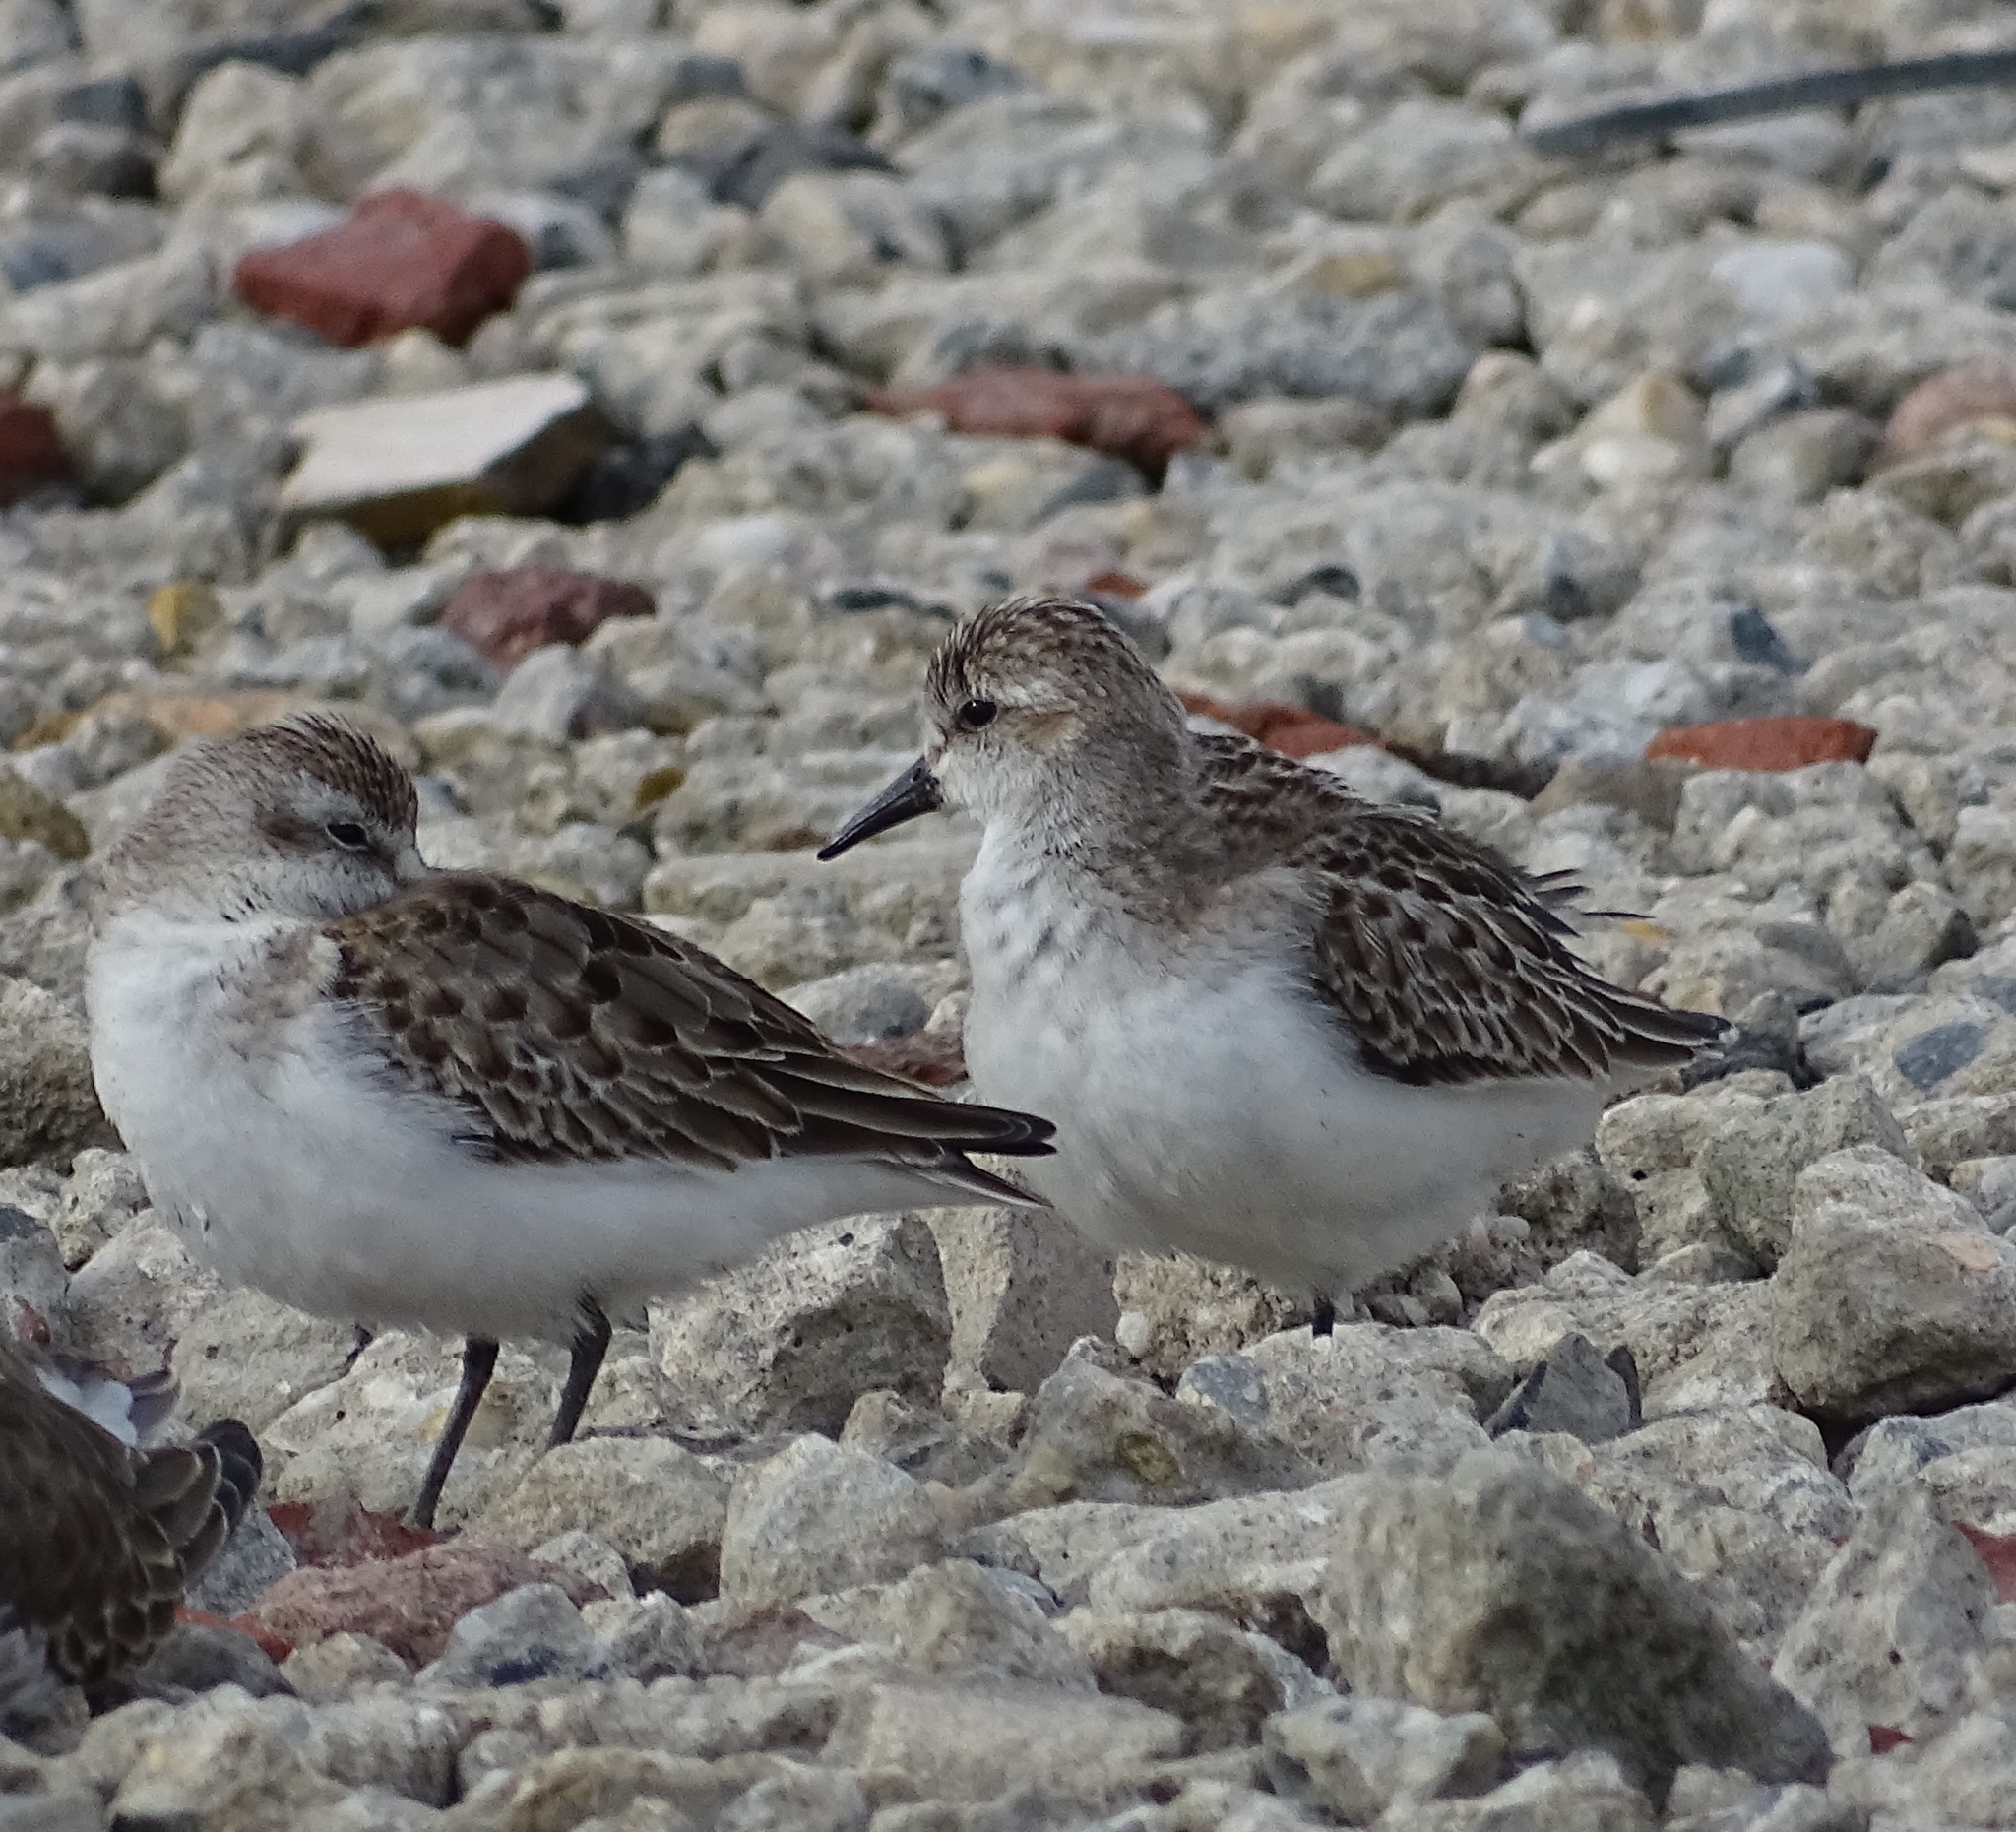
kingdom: Animalia
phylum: Chordata
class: Aves
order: Charadriiformes
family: Scolopacidae
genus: Calidris
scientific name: Calidris pusilla
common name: Semipalmated sandpiper
